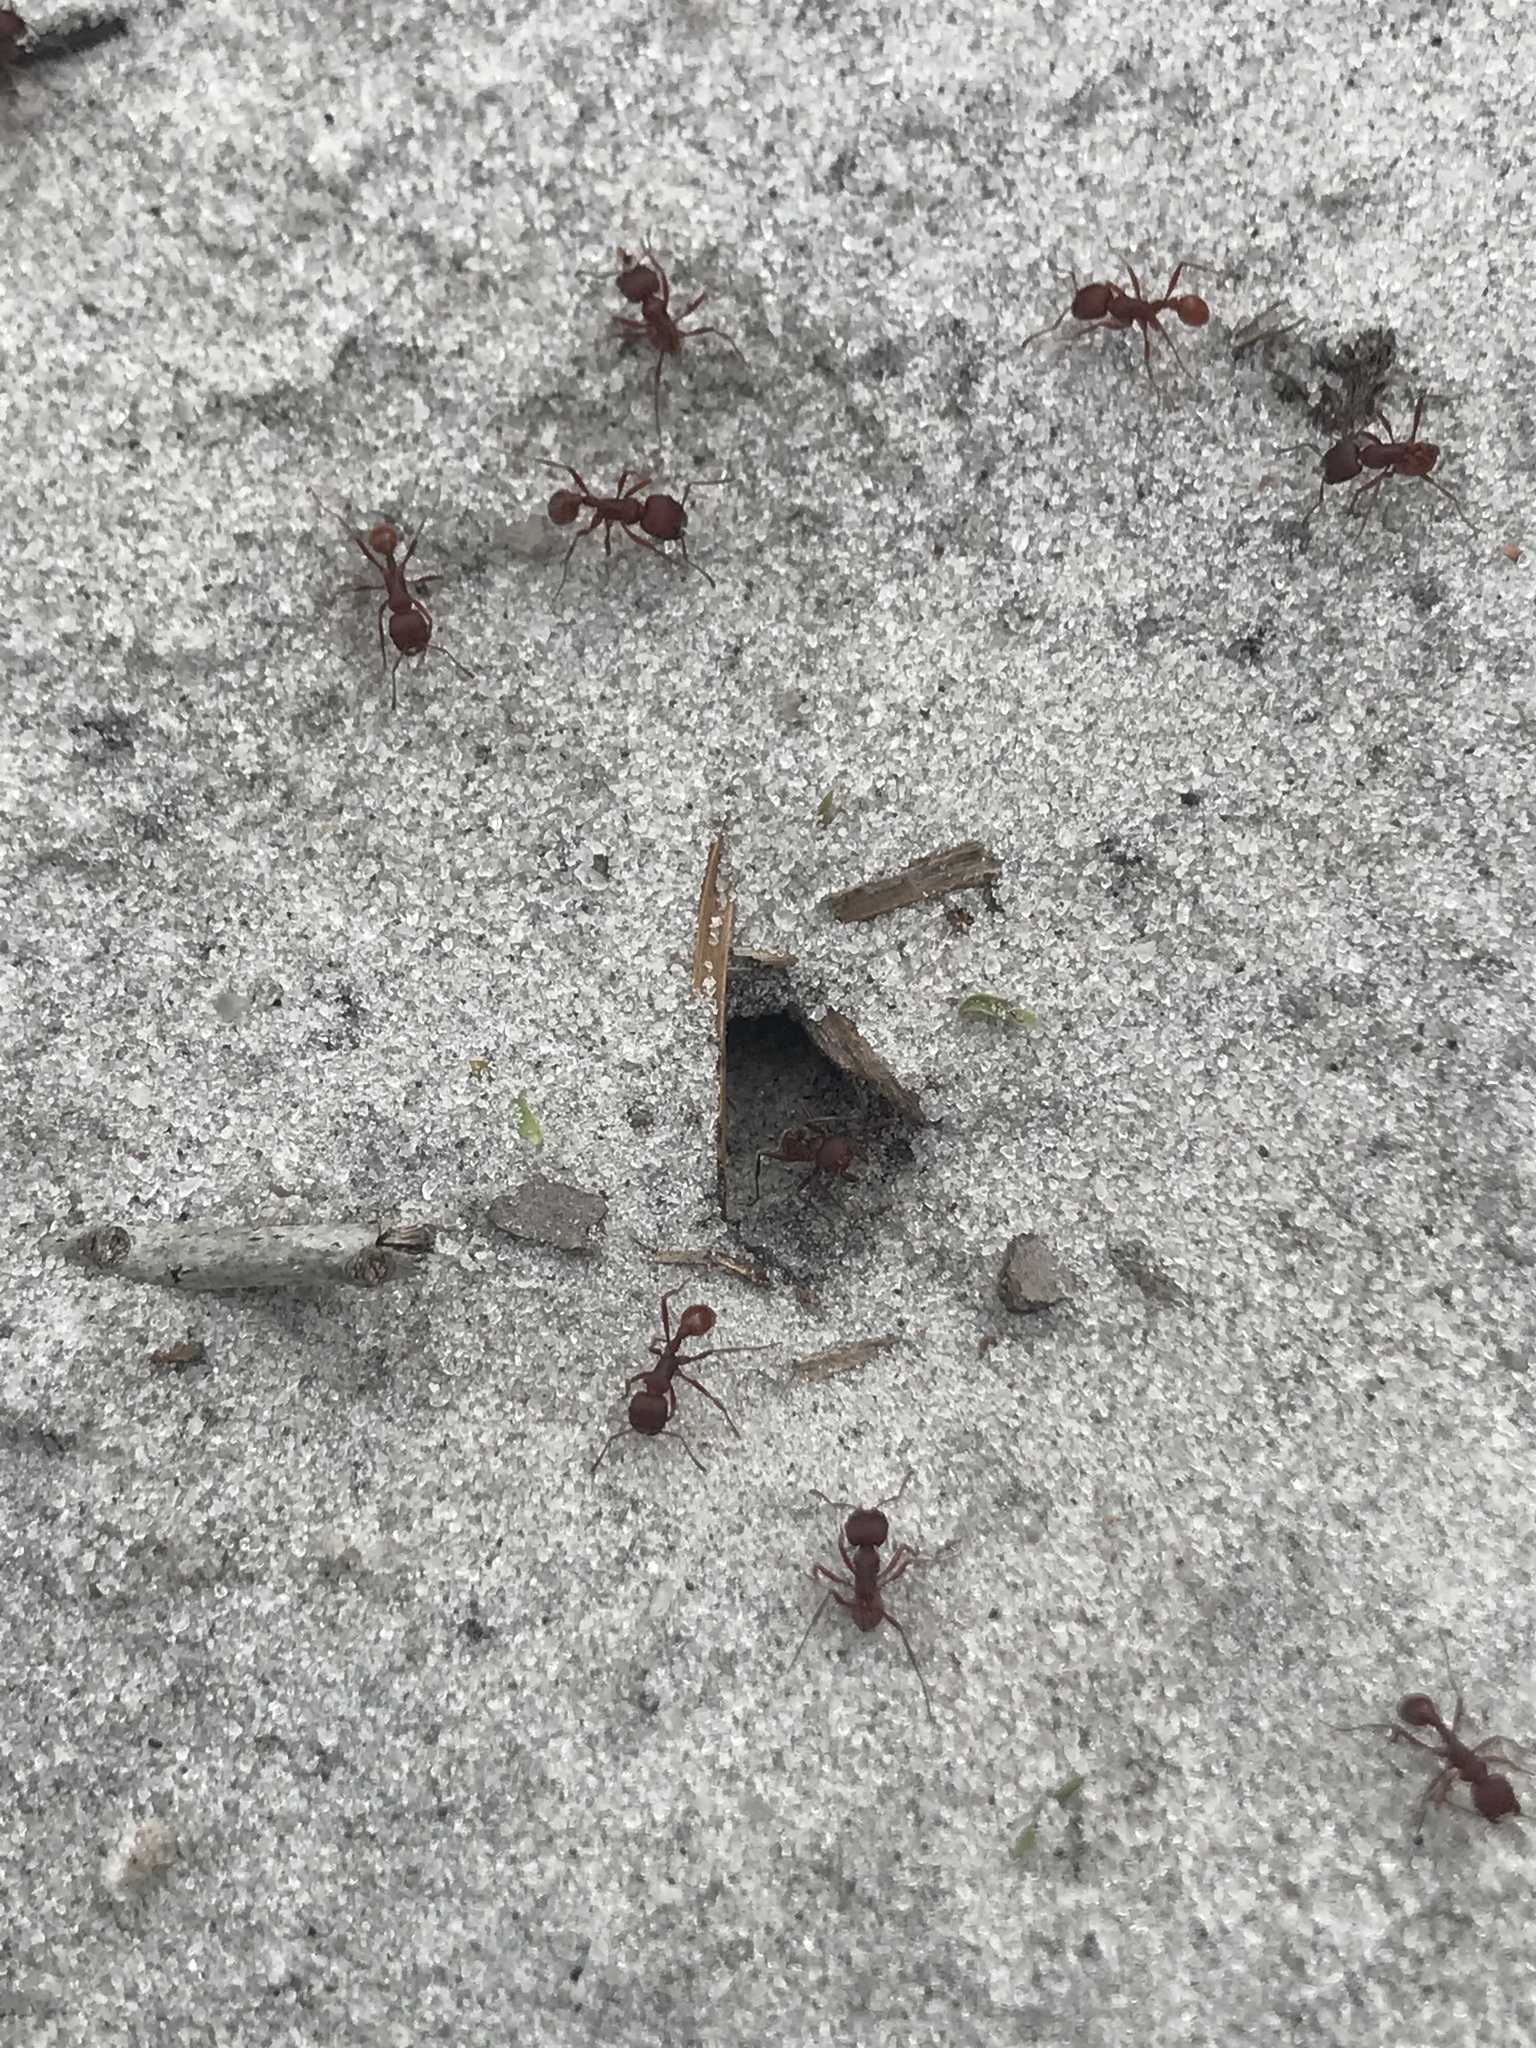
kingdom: Animalia
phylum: Arthropoda
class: Insecta
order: Hymenoptera
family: Formicidae
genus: Pogonomyrmex
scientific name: Pogonomyrmex badius
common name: Florida harvester ant
